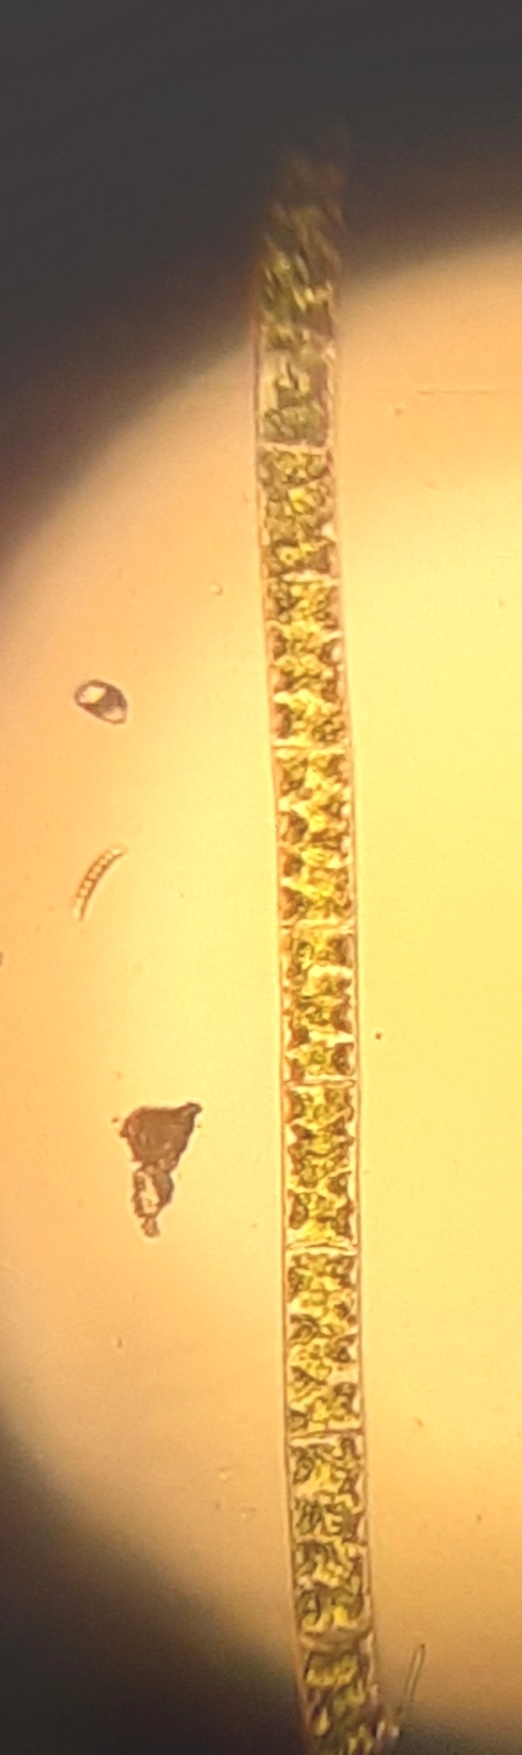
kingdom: Plantae
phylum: Charophyta
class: Zygnematophyceae
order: Zygnematales
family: Zygnemataceae
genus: Spirogyra
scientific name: Spirogyra
